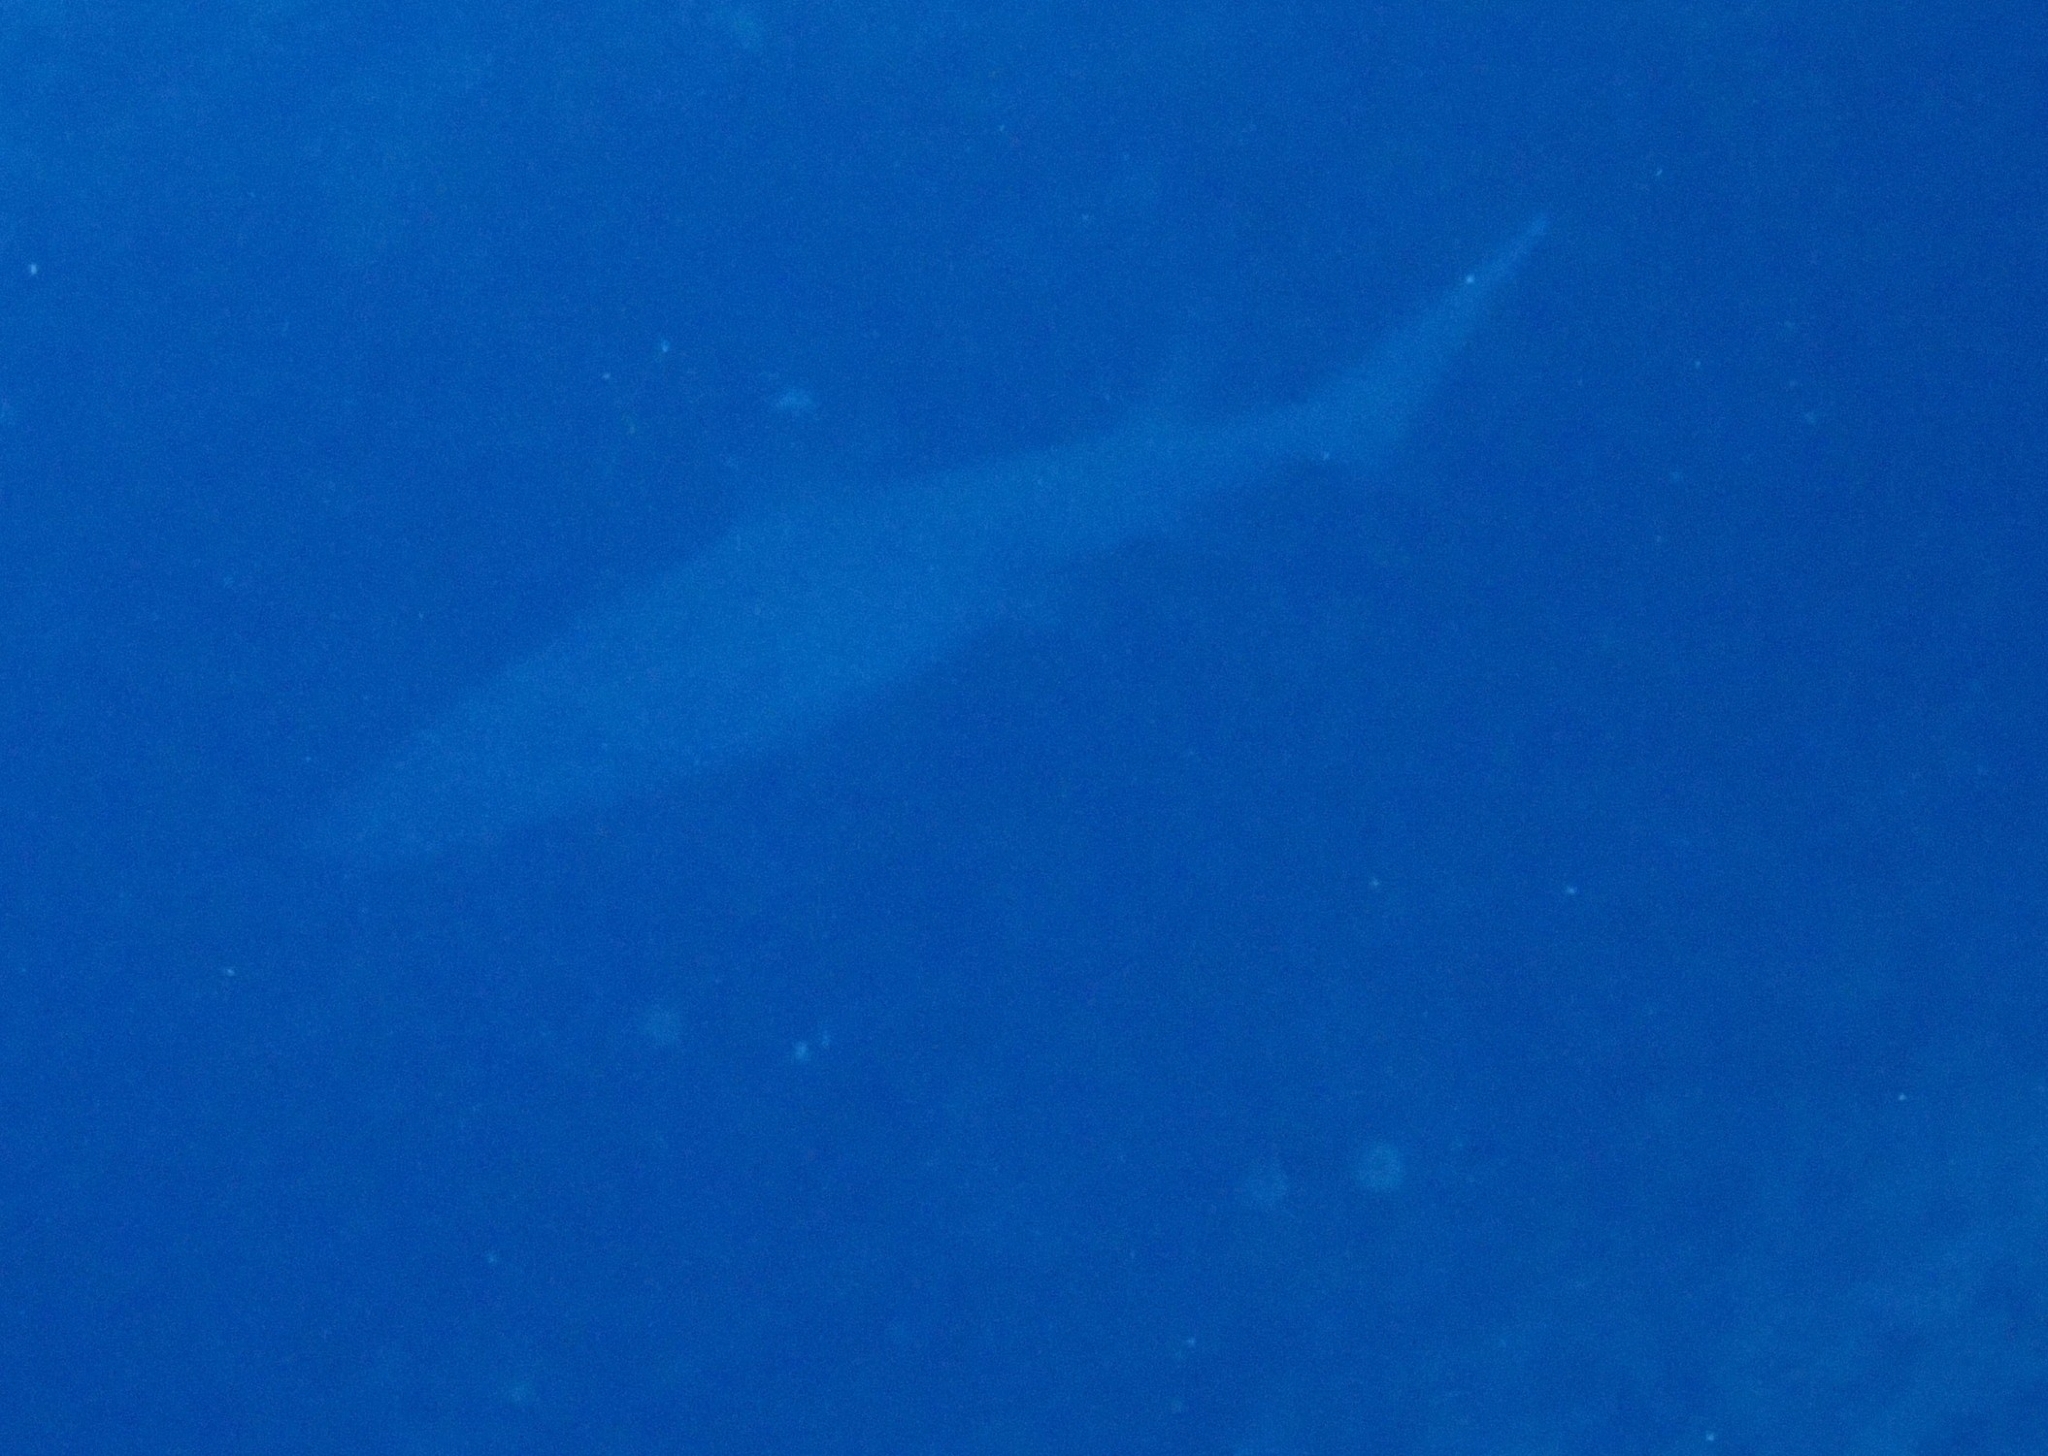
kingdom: Animalia
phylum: Chordata
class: Elasmobranchii
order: Carcharhiniformes
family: Carcharhinidae
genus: Triaenodon
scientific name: Triaenodon obesus
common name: Whitetip reef shark
